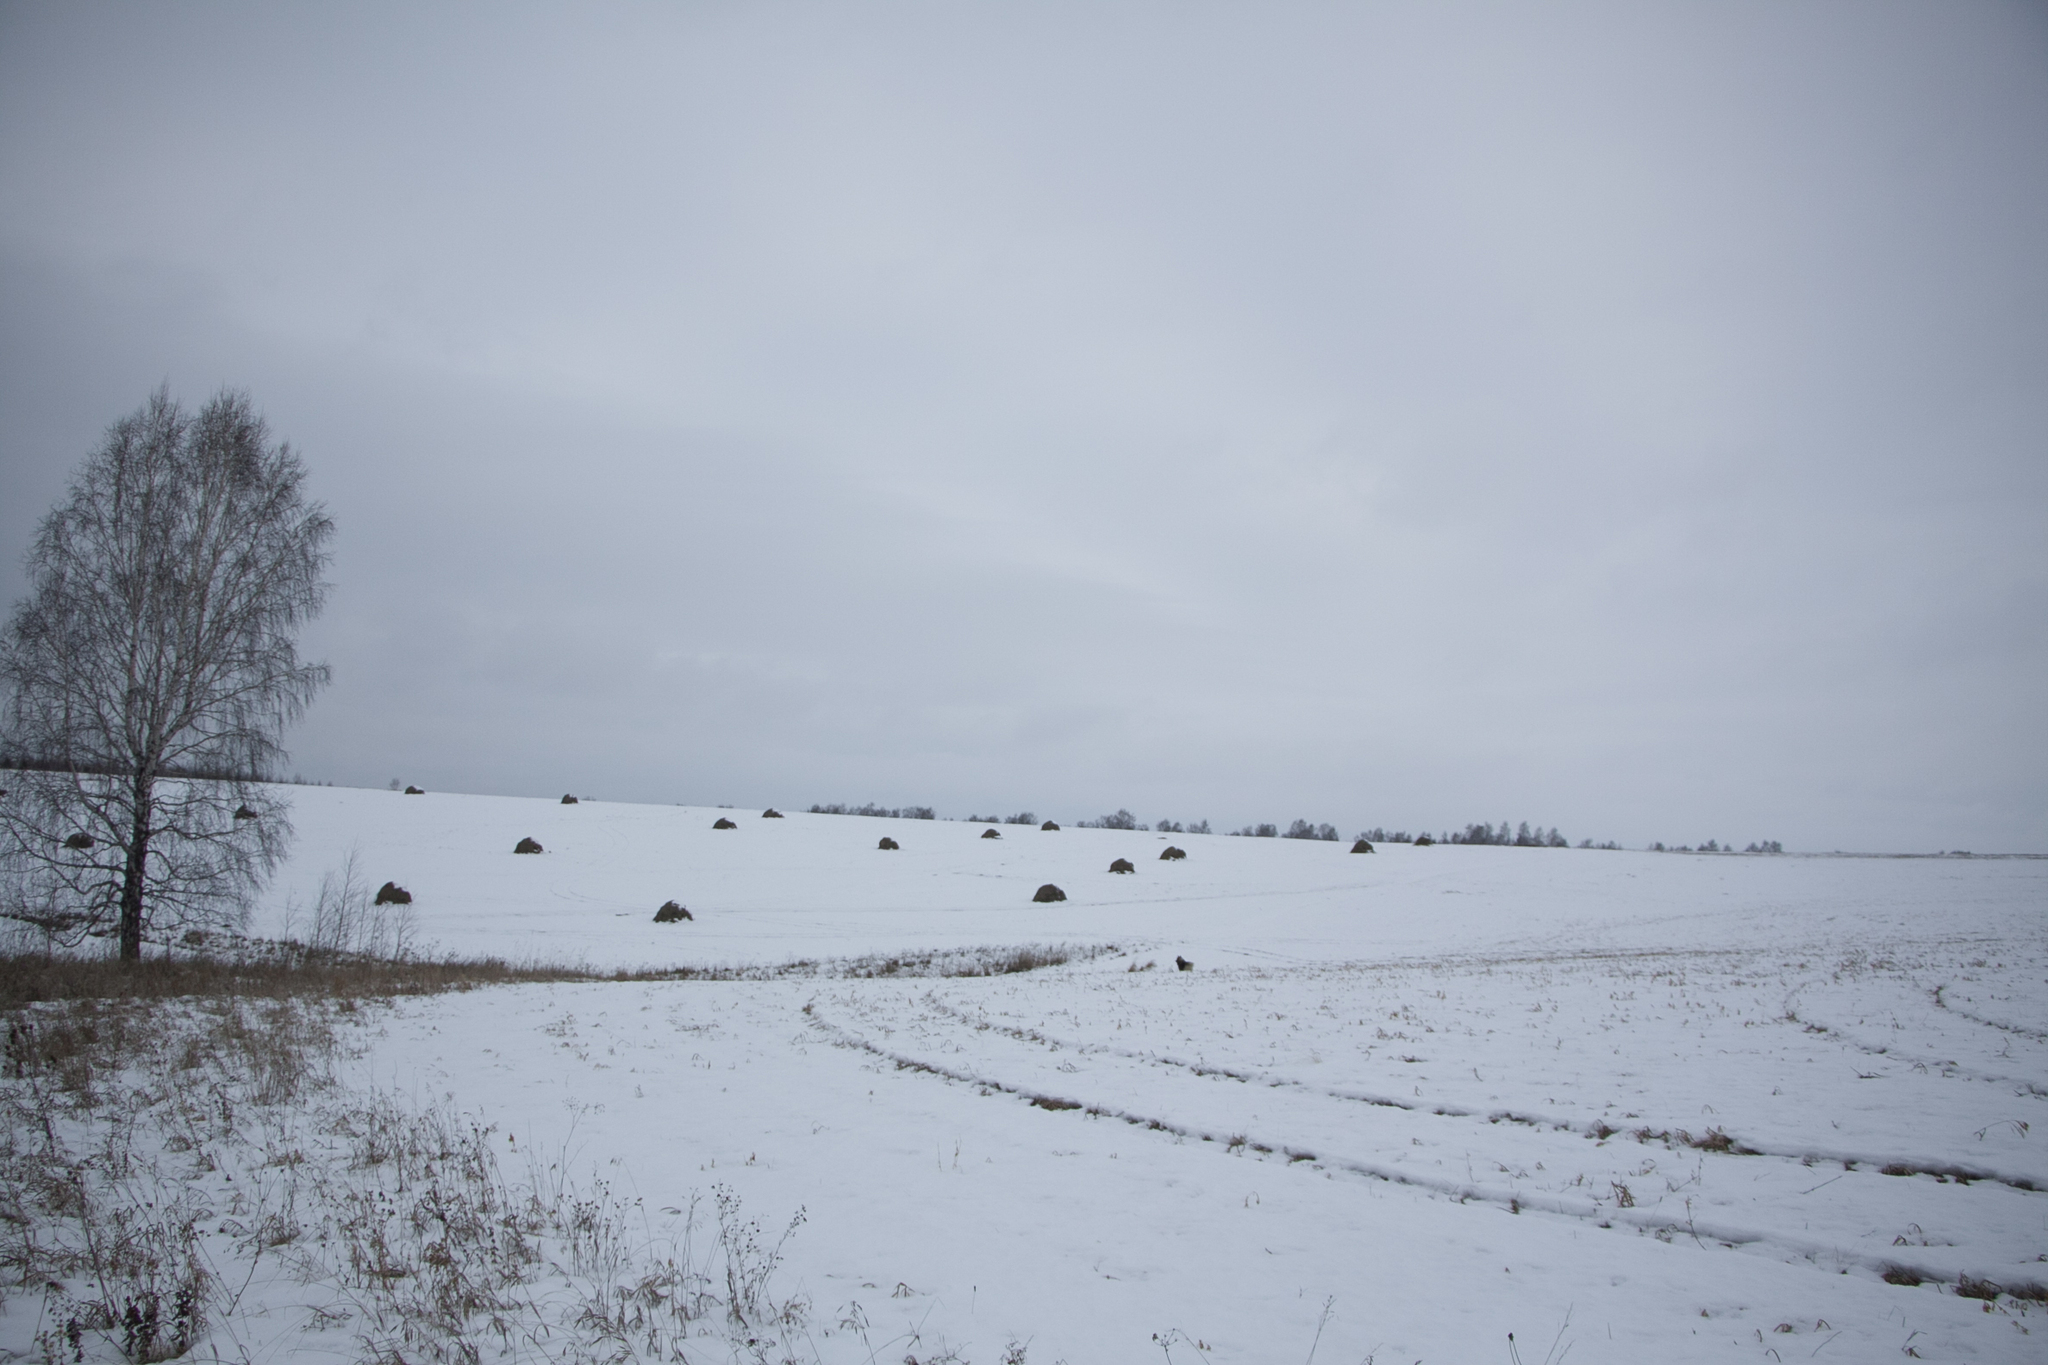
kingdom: Plantae
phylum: Tracheophyta
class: Magnoliopsida
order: Fagales
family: Betulaceae
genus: Betula
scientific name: Betula pendula
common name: Silver birch
